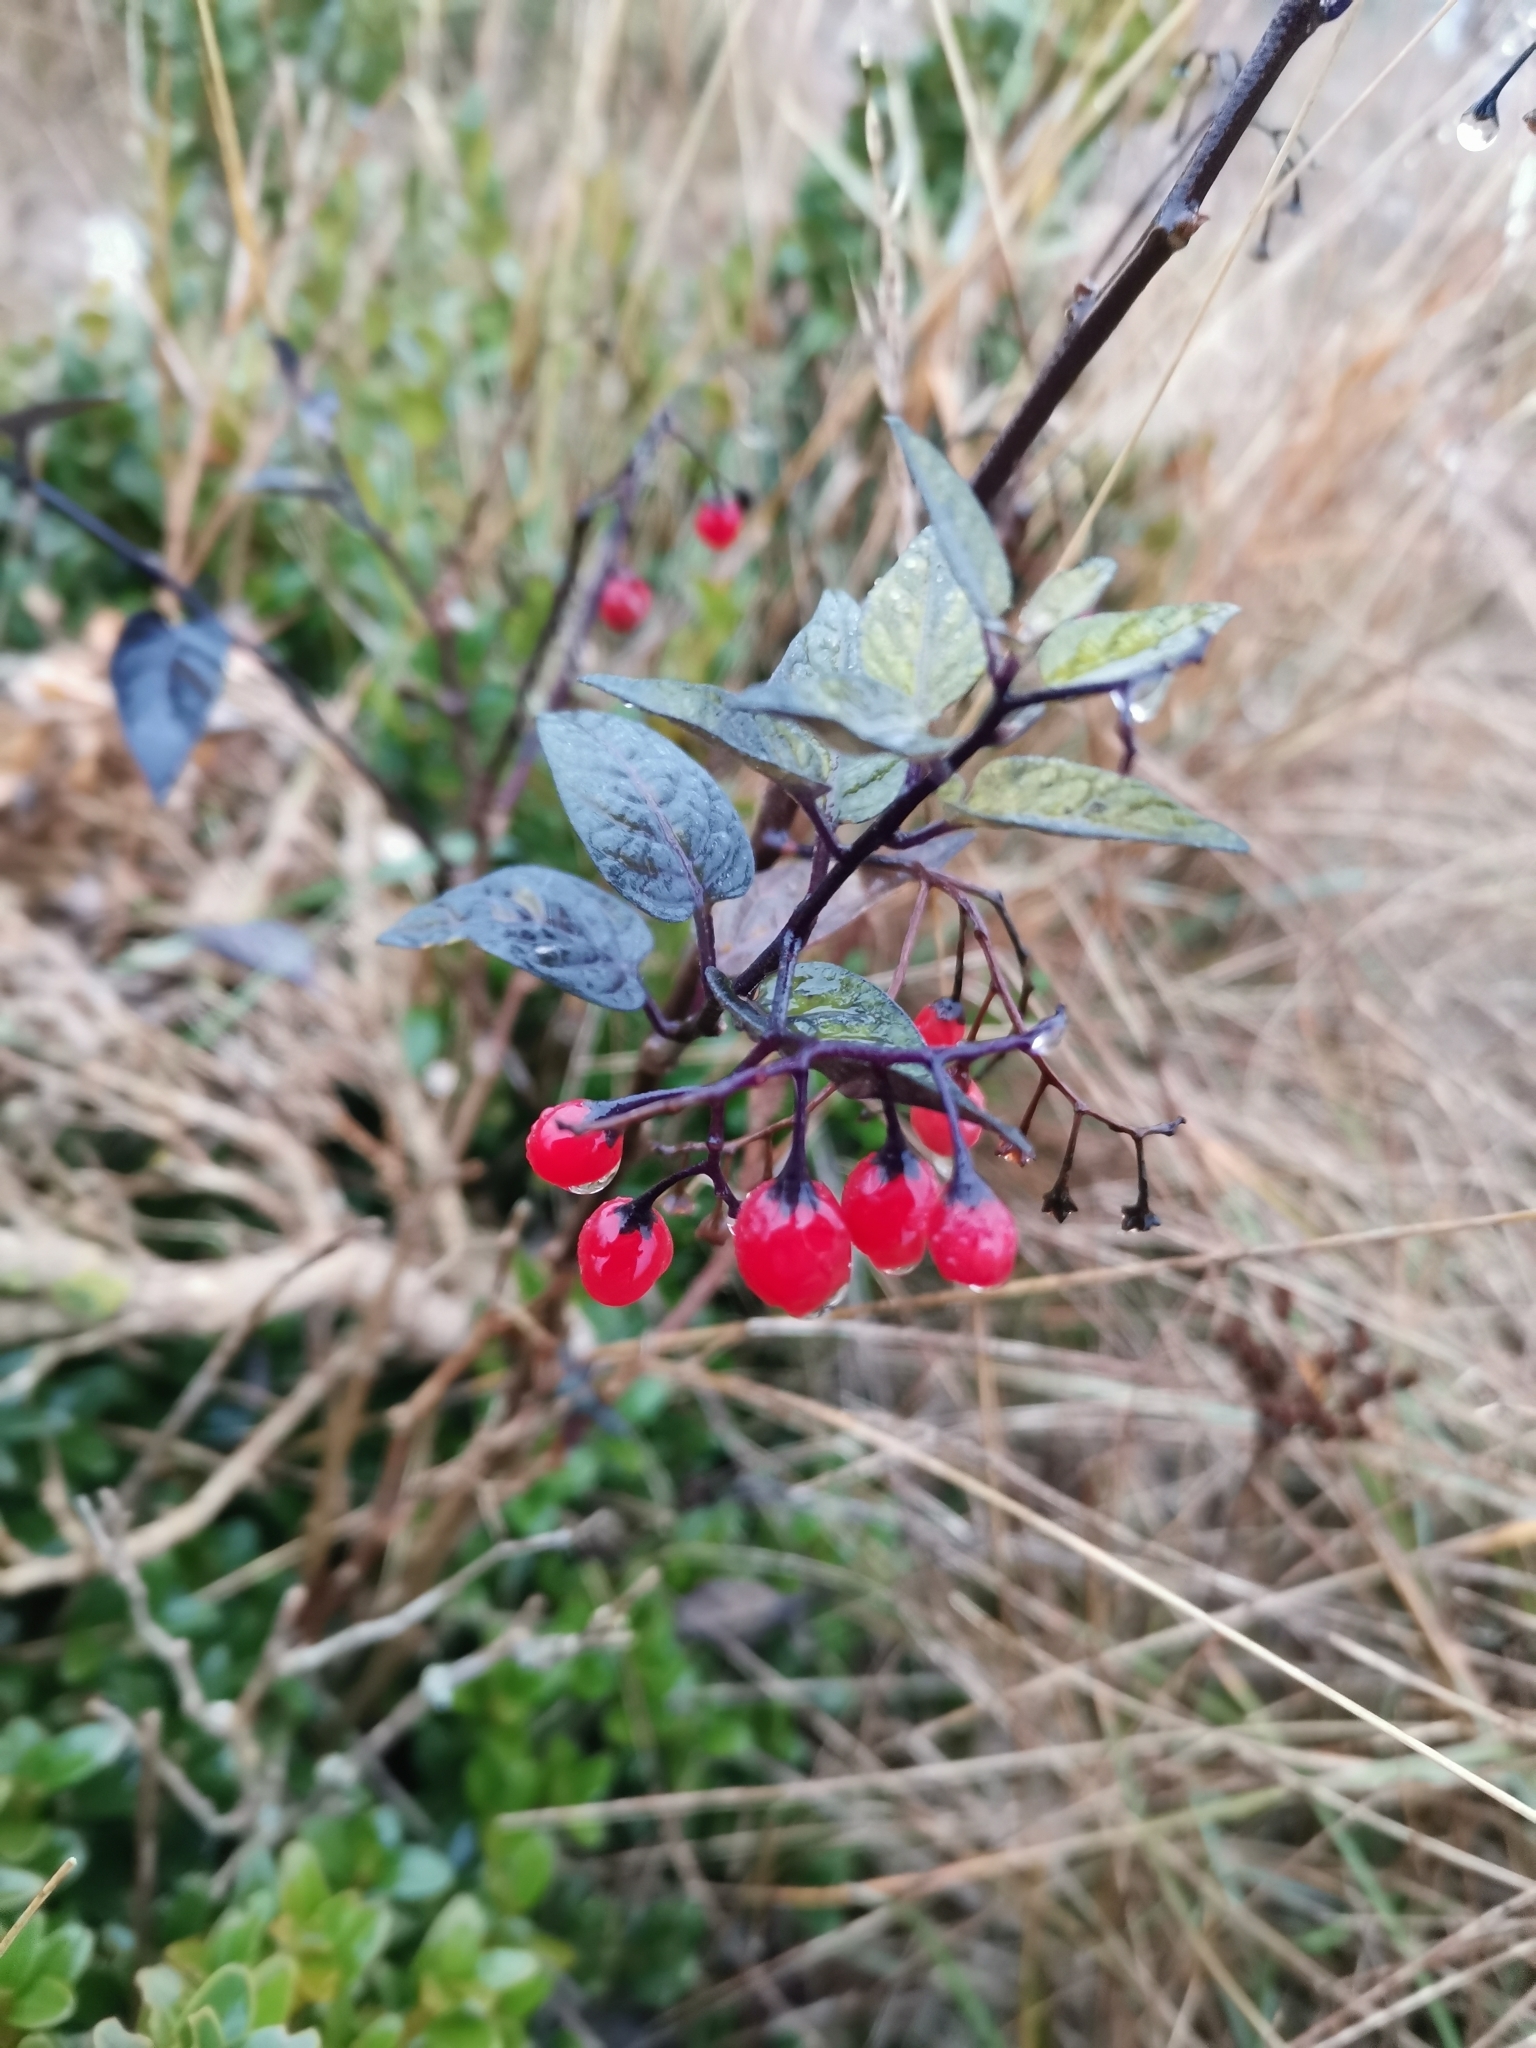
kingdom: Plantae
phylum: Tracheophyta
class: Magnoliopsida
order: Solanales
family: Solanaceae
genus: Solanum
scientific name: Solanum dulcamara
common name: Climbing nightshade
